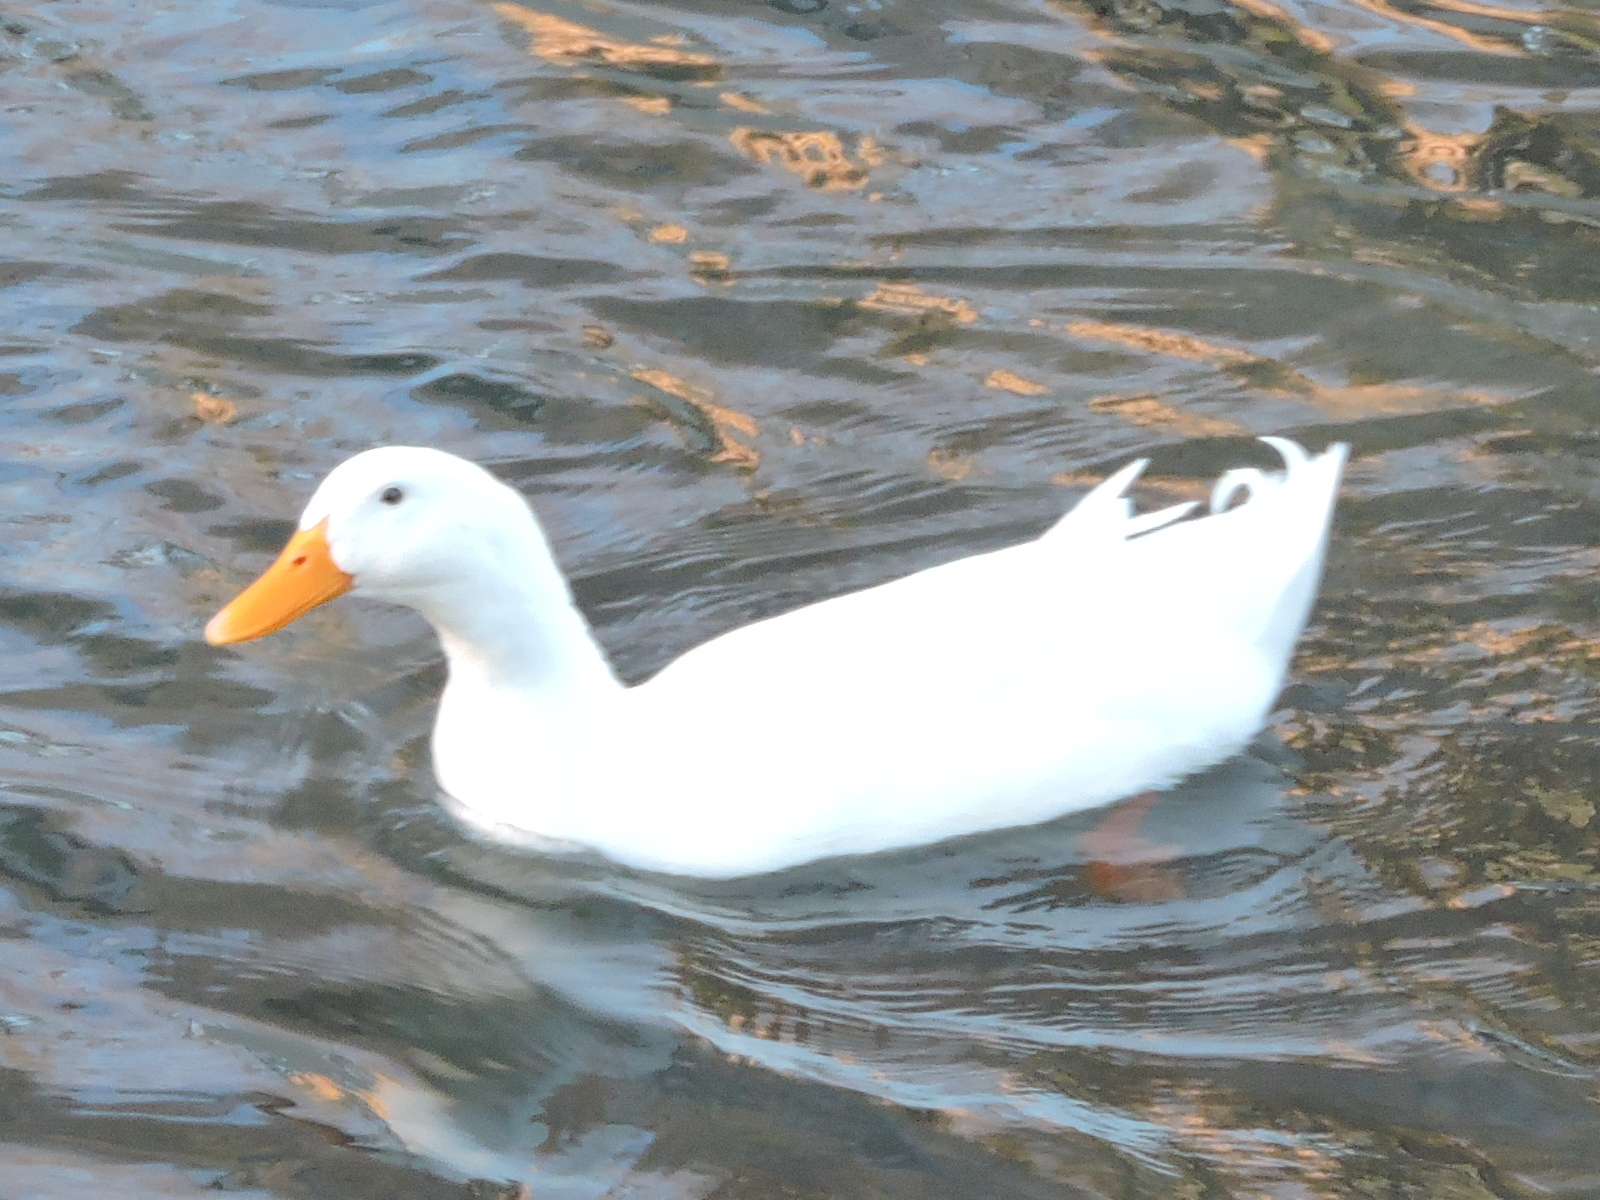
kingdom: Animalia
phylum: Chordata
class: Aves
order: Anseriformes
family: Anatidae
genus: Anas
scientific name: Anas platyrhynchos
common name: Mallard
